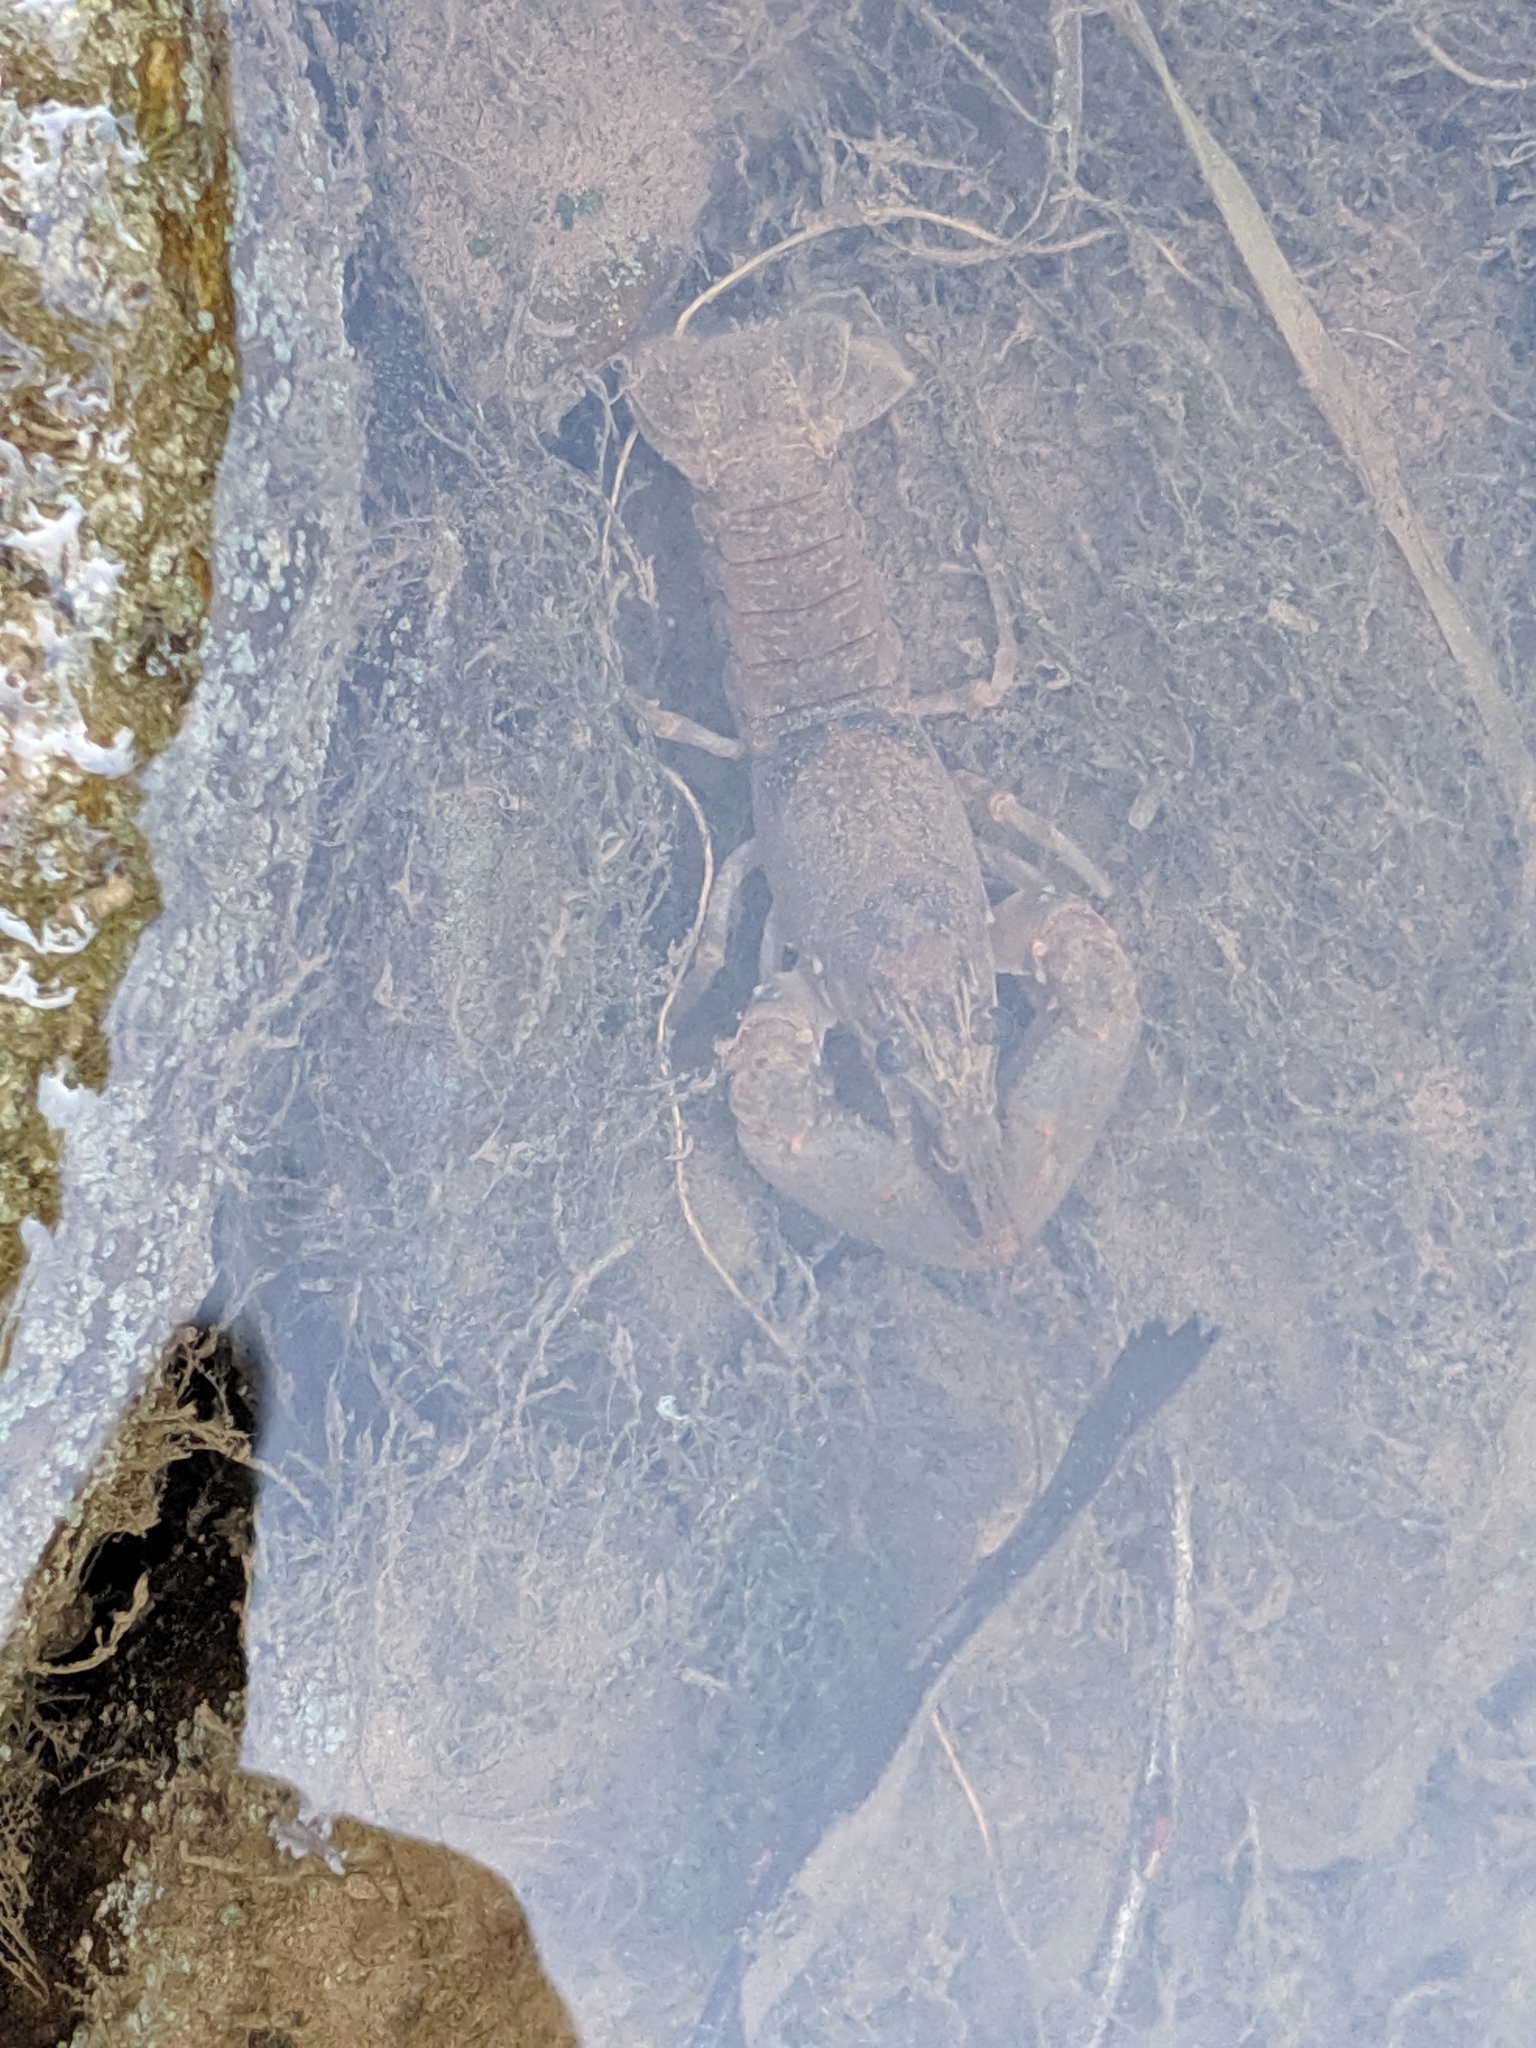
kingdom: Animalia
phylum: Arthropoda
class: Malacostraca
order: Decapoda
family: Cambaridae
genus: Faxonius
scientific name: Faxonius propinquus
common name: Northern clearwater crayfish
